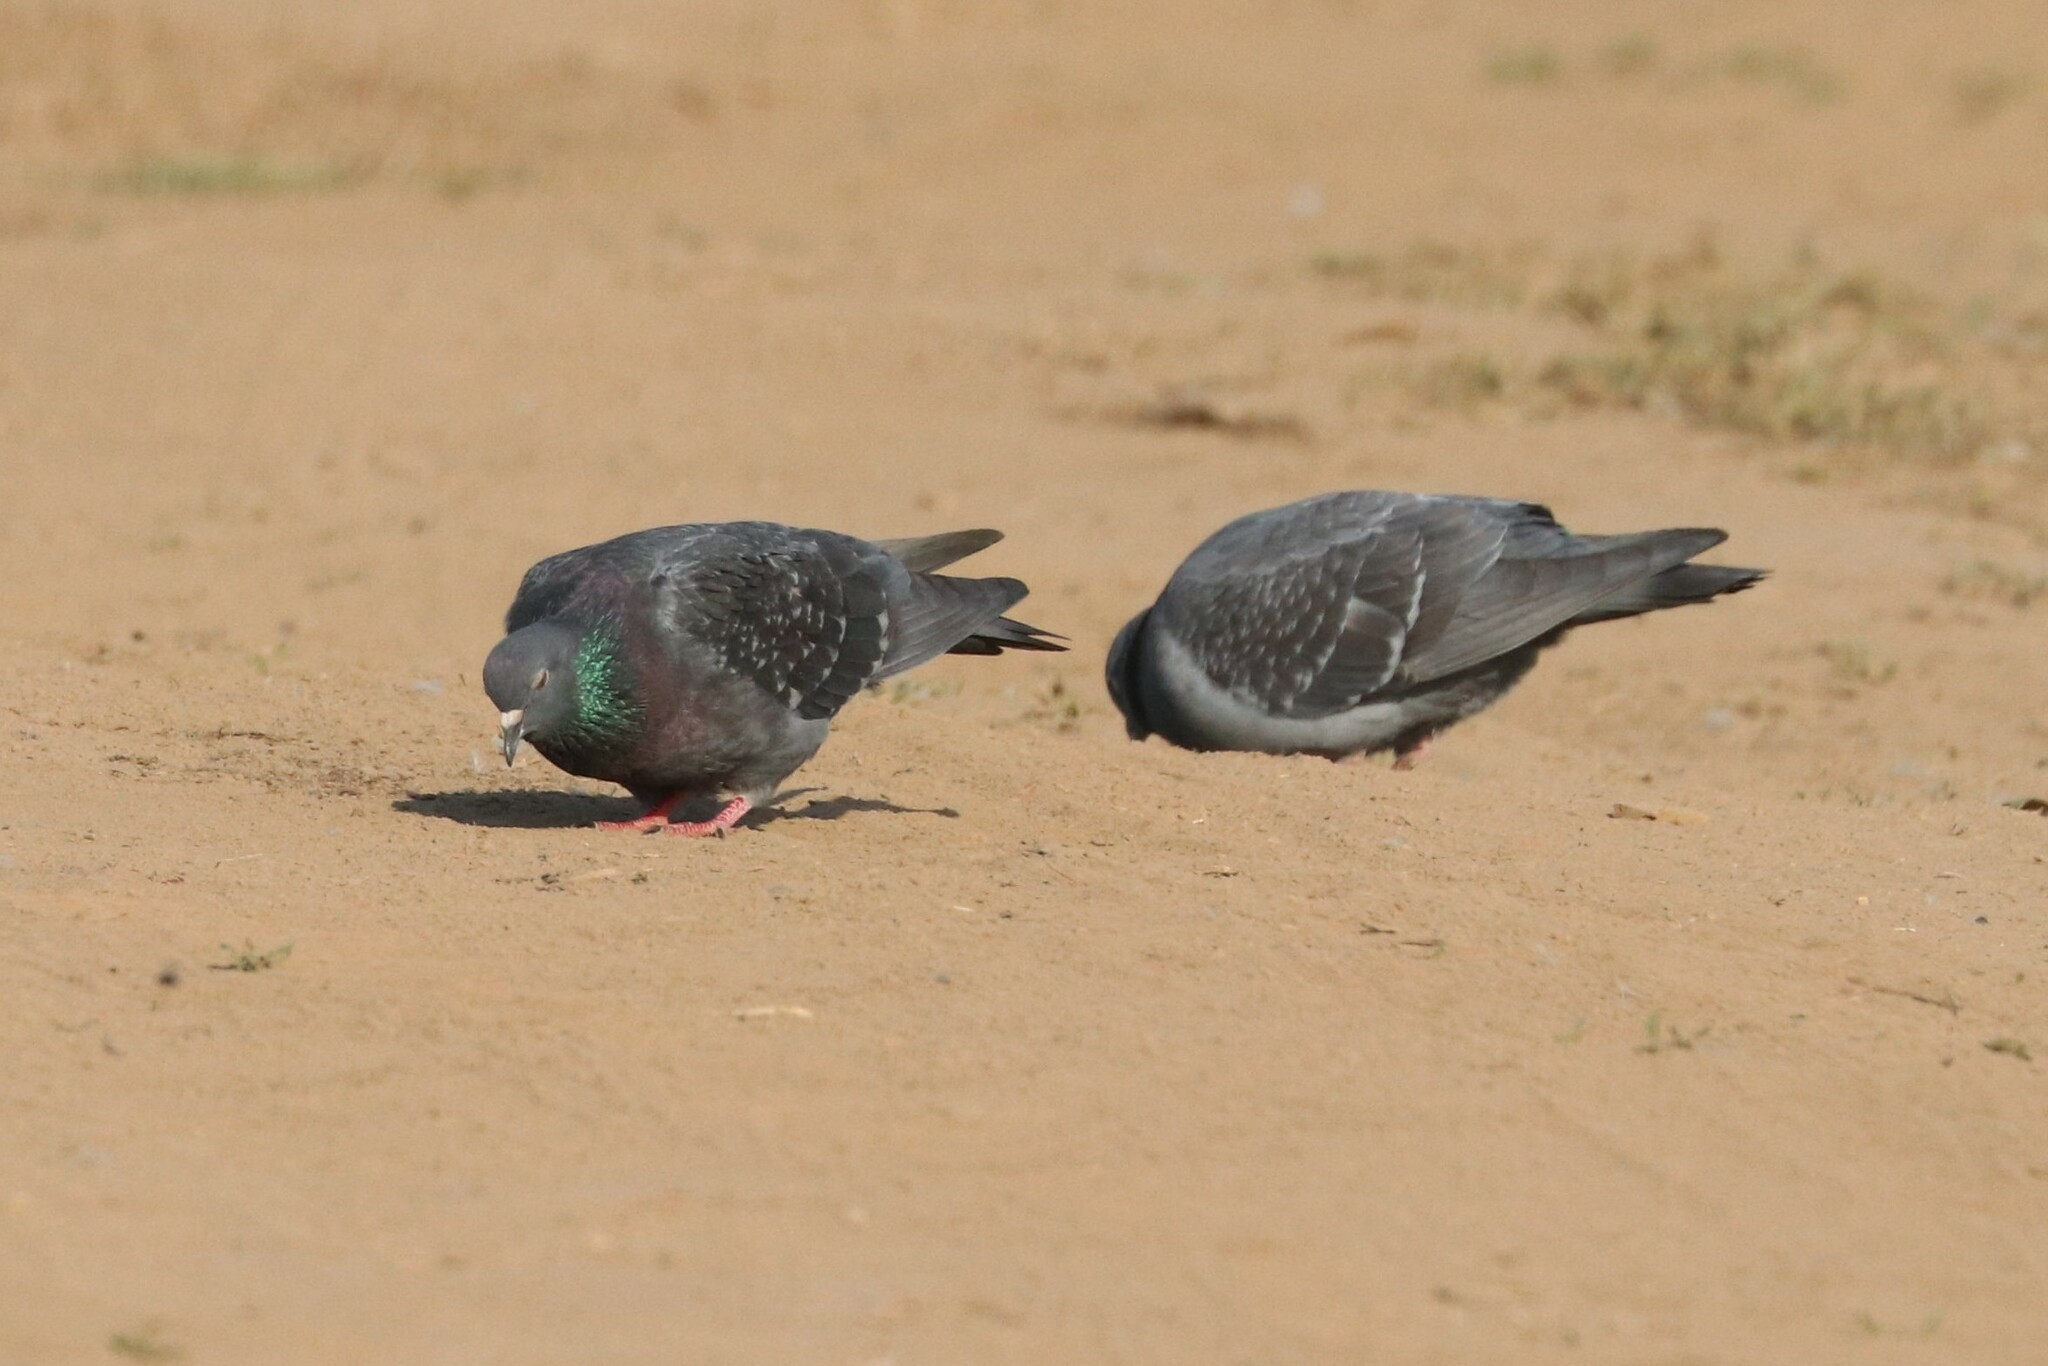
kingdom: Animalia
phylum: Chordata
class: Aves
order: Columbiformes
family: Columbidae
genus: Columba
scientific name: Columba livia
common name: Rock pigeon
